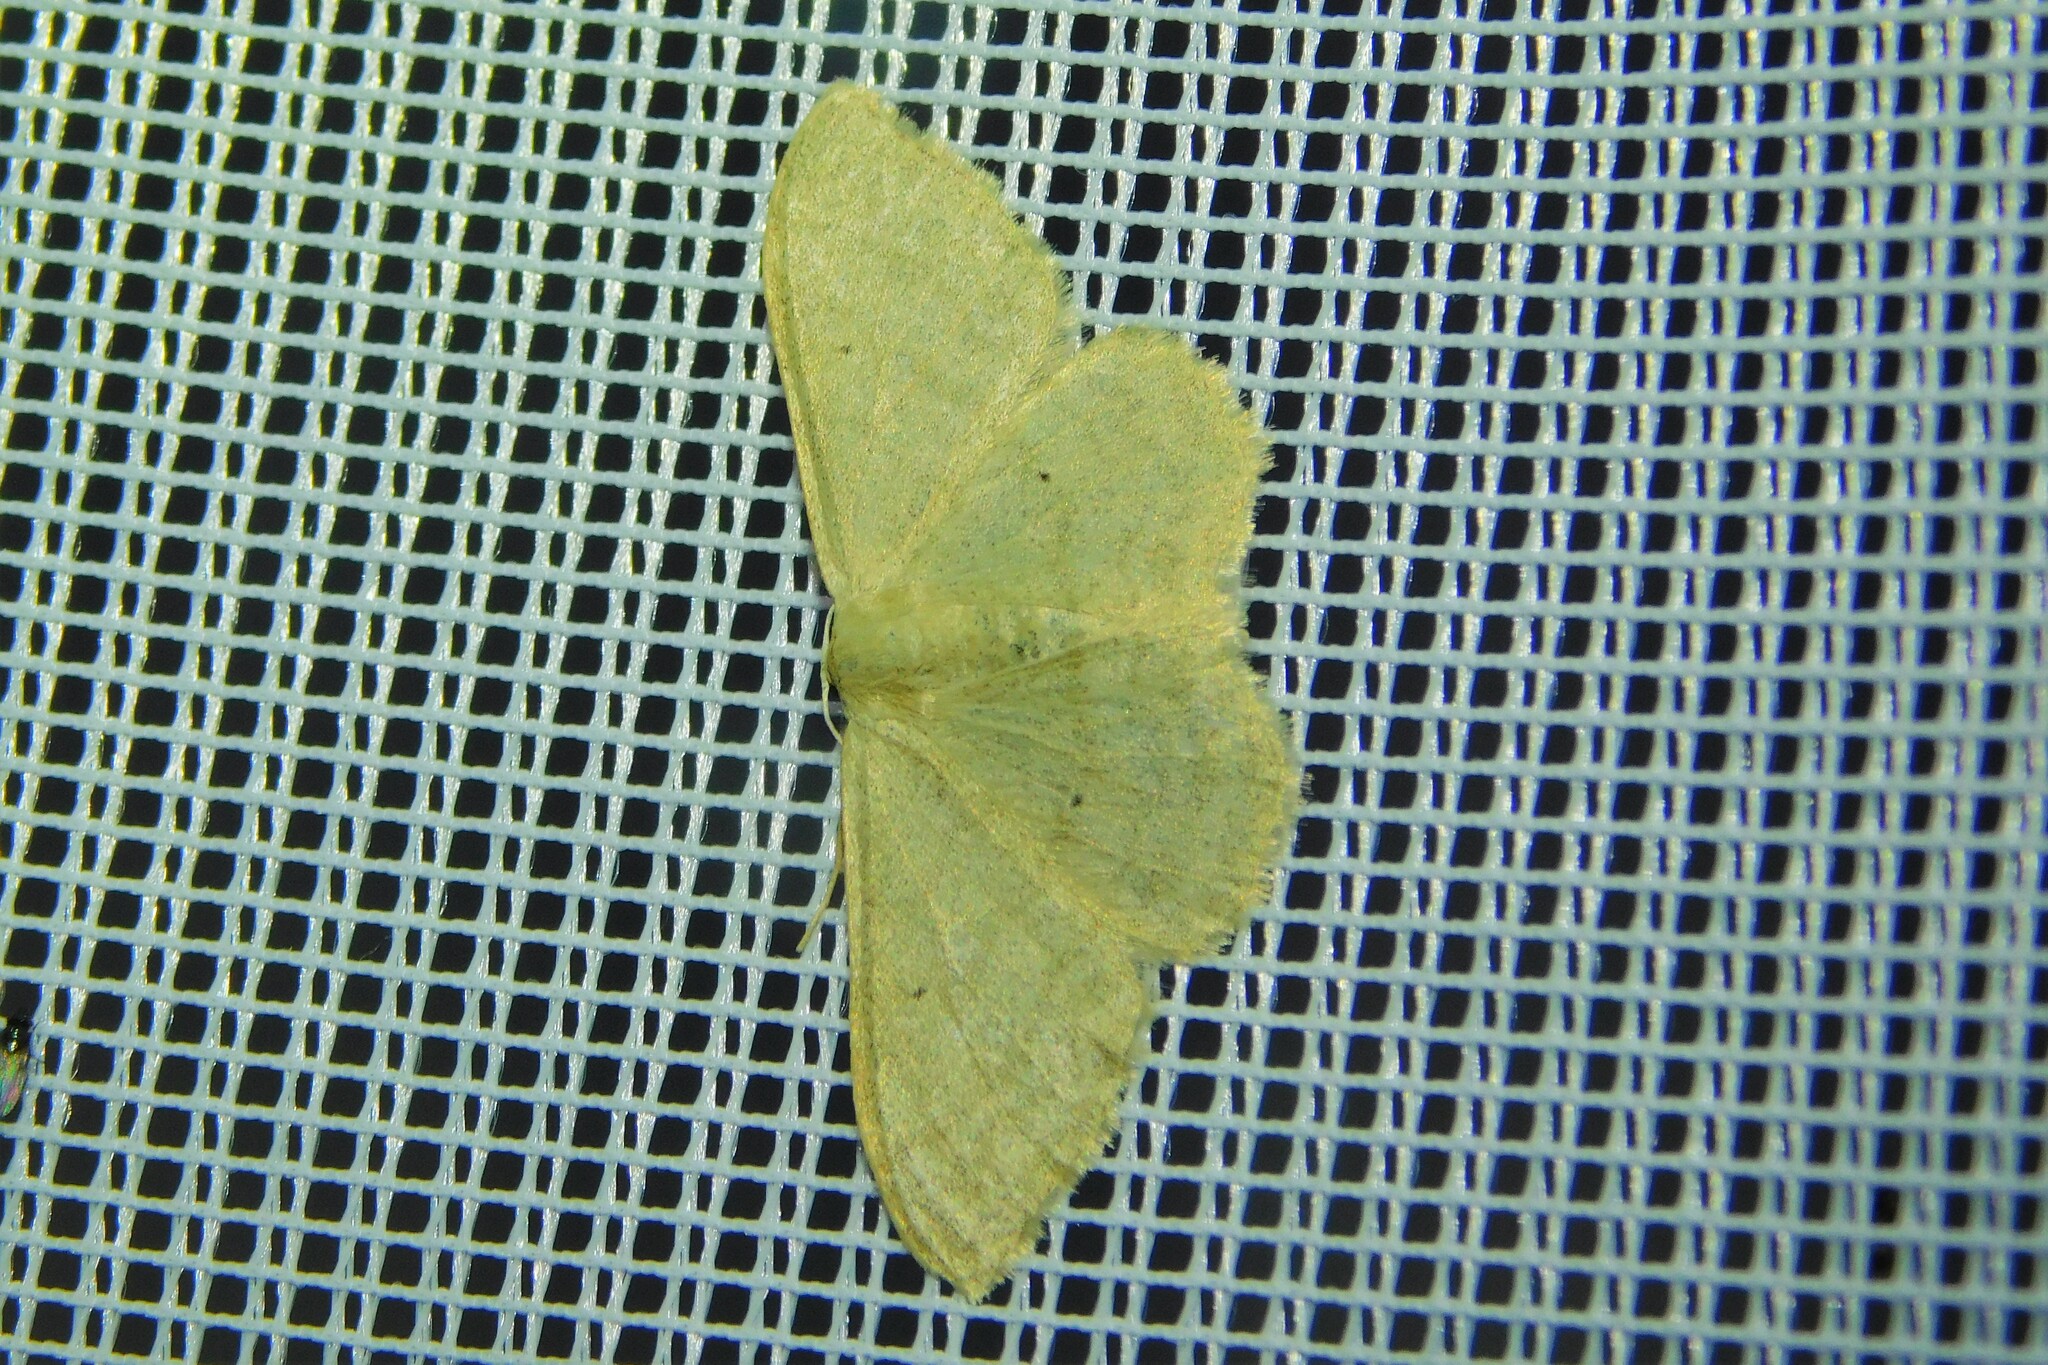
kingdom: Animalia
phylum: Arthropoda
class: Insecta
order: Lepidoptera
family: Geometridae
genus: Idaea
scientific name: Idaea straminata
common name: Plain wave
